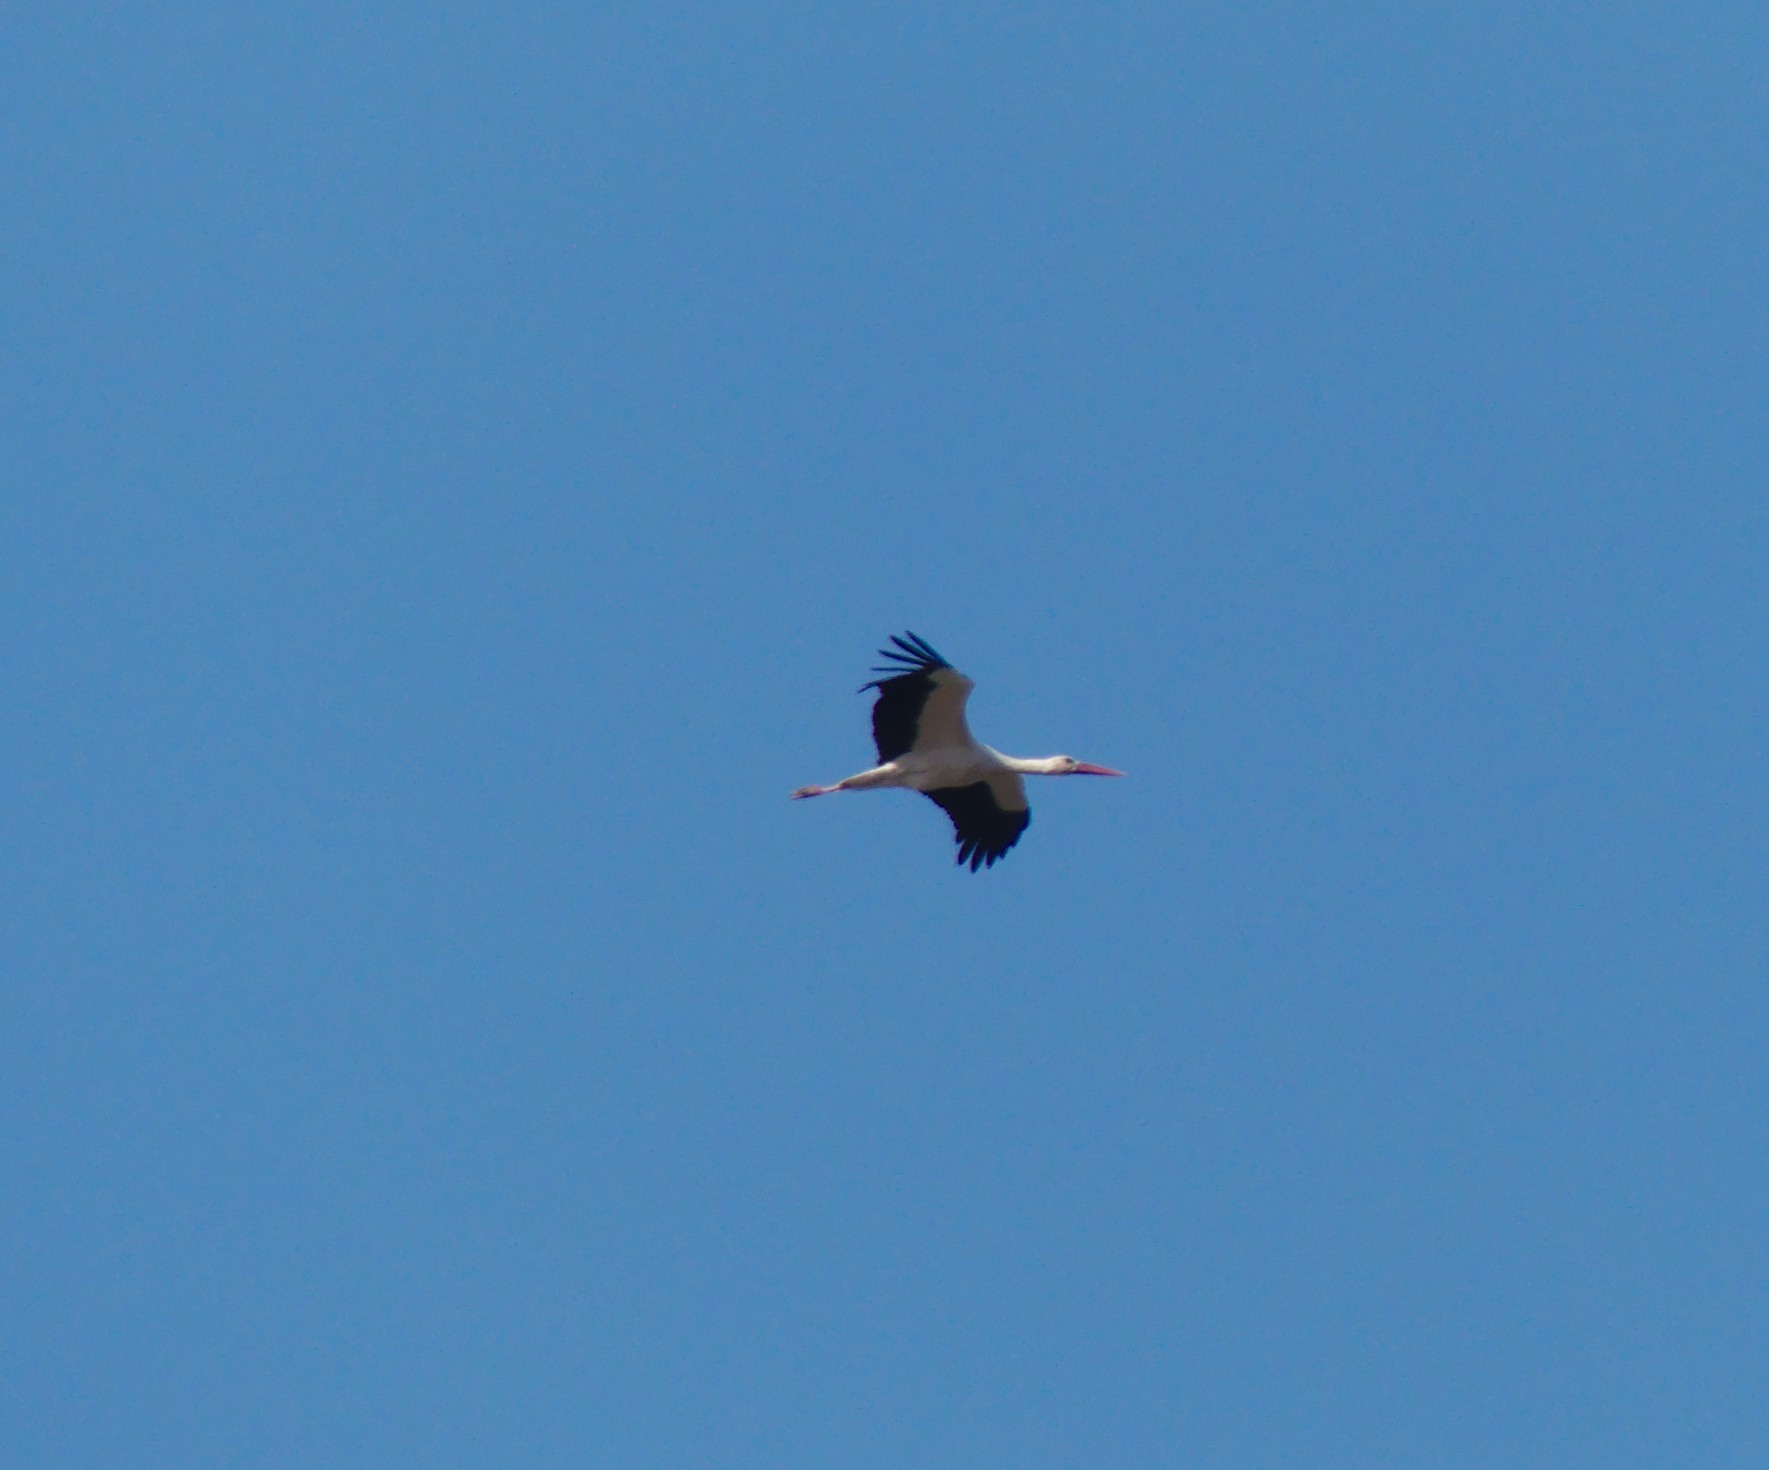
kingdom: Animalia
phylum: Chordata
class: Aves
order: Ciconiiformes
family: Ciconiidae
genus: Ciconia
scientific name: Ciconia ciconia
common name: White stork
